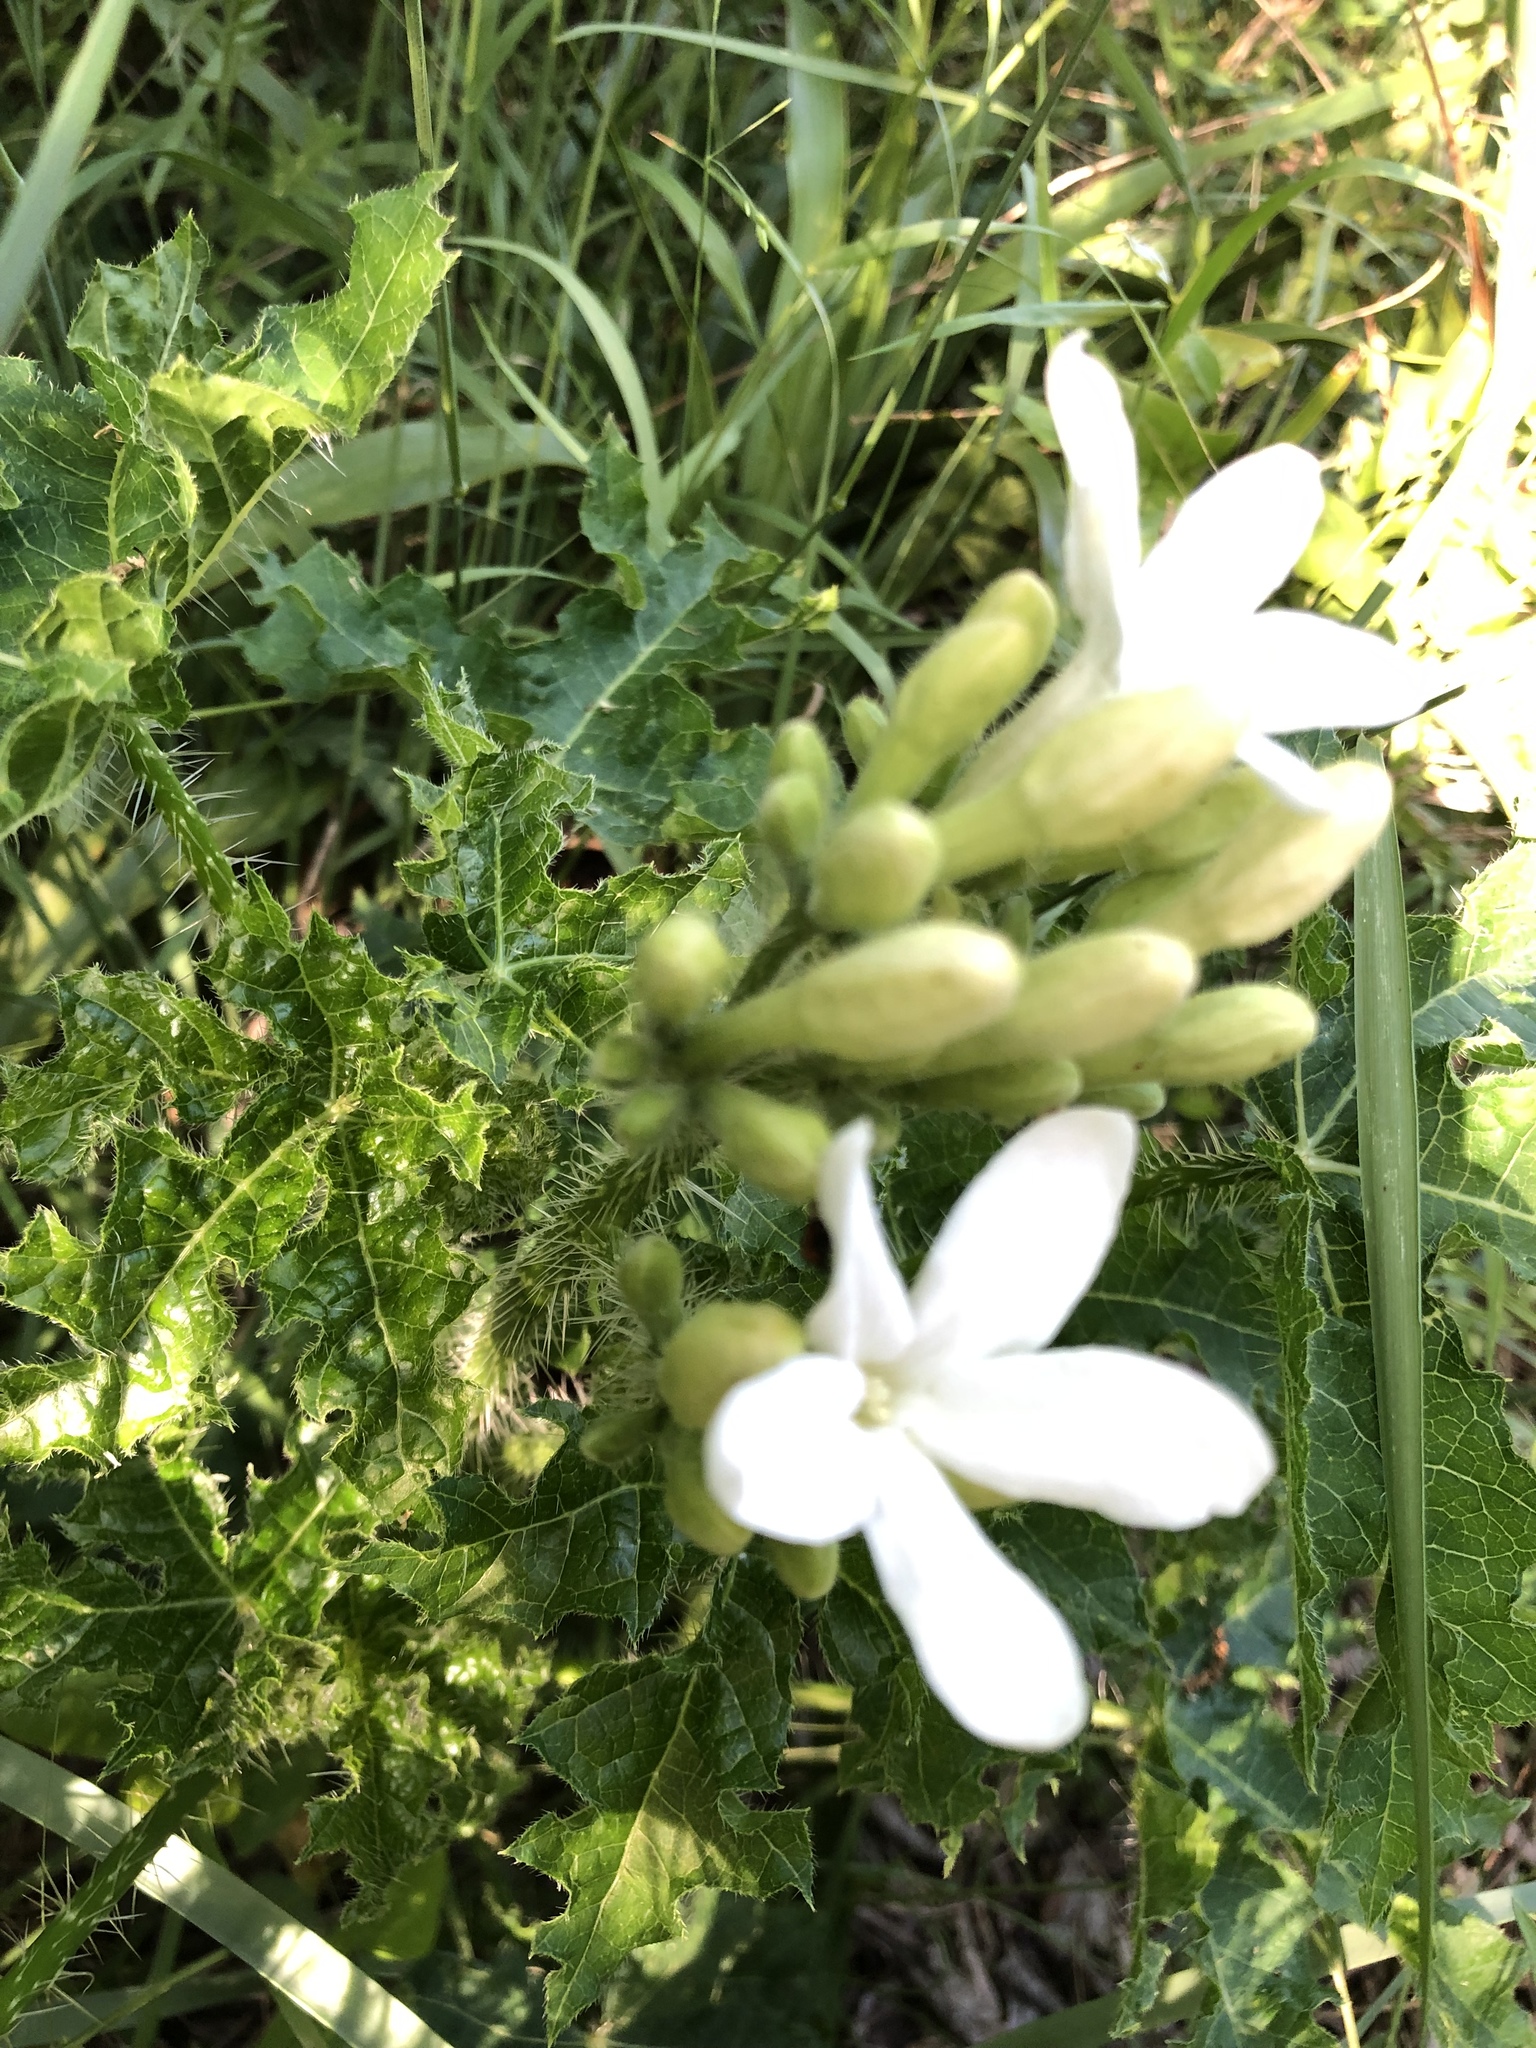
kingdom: Plantae
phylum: Tracheophyta
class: Magnoliopsida
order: Malpighiales
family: Euphorbiaceae
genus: Cnidoscolus
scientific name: Cnidoscolus texanus
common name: Texas bull-nettle
